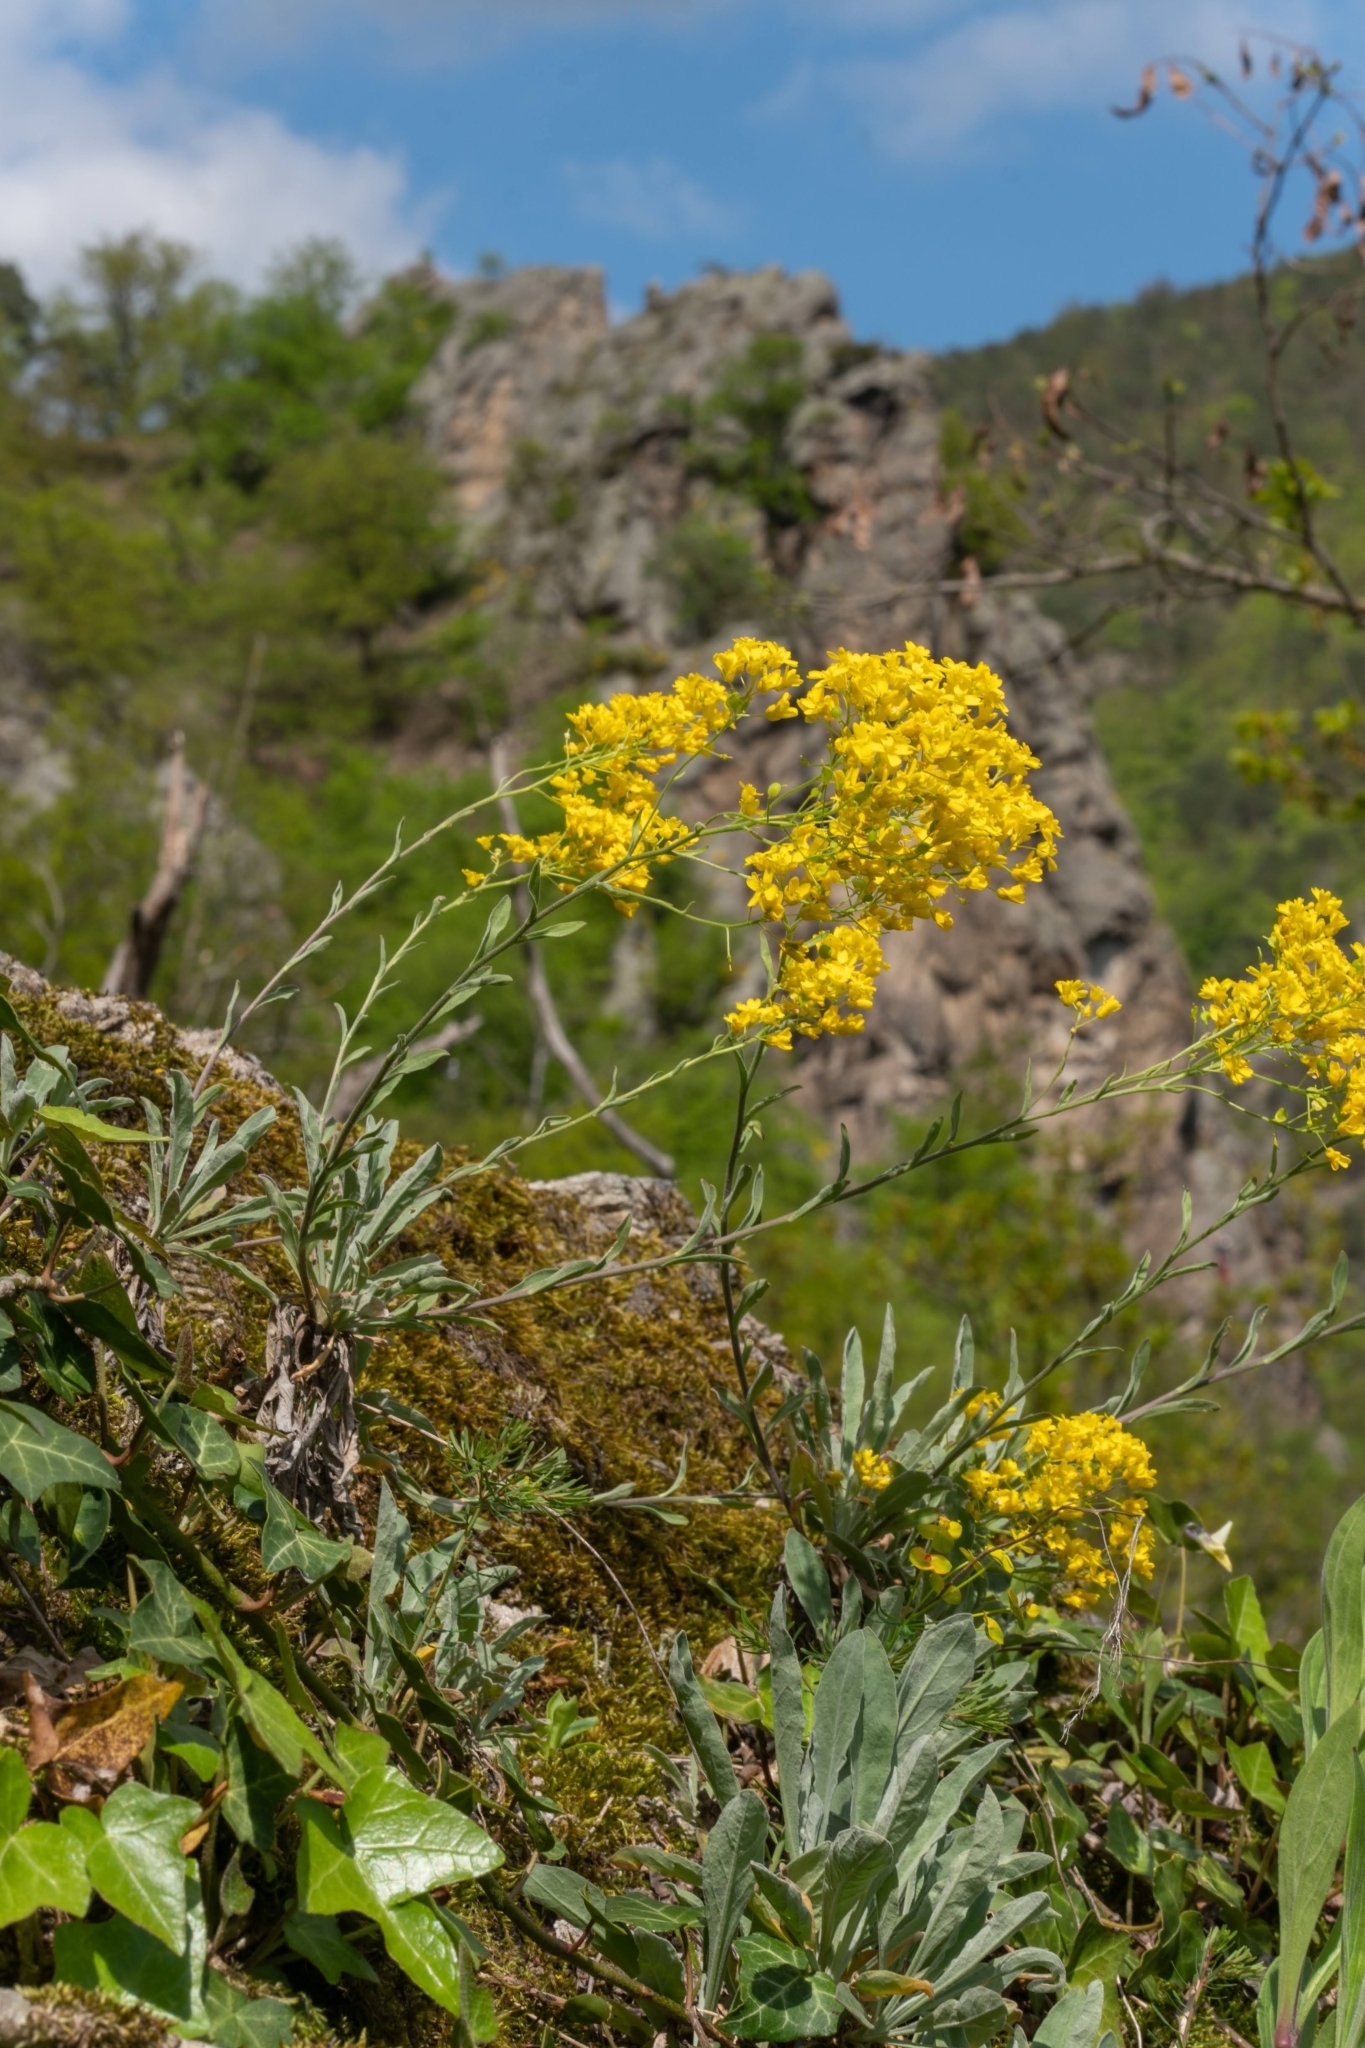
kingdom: Plantae
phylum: Tracheophyta
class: Magnoliopsida
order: Brassicales
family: Brassicaceae
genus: Aurinia
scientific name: Aurinia saxatilis
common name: Golden-tuft alyssum
